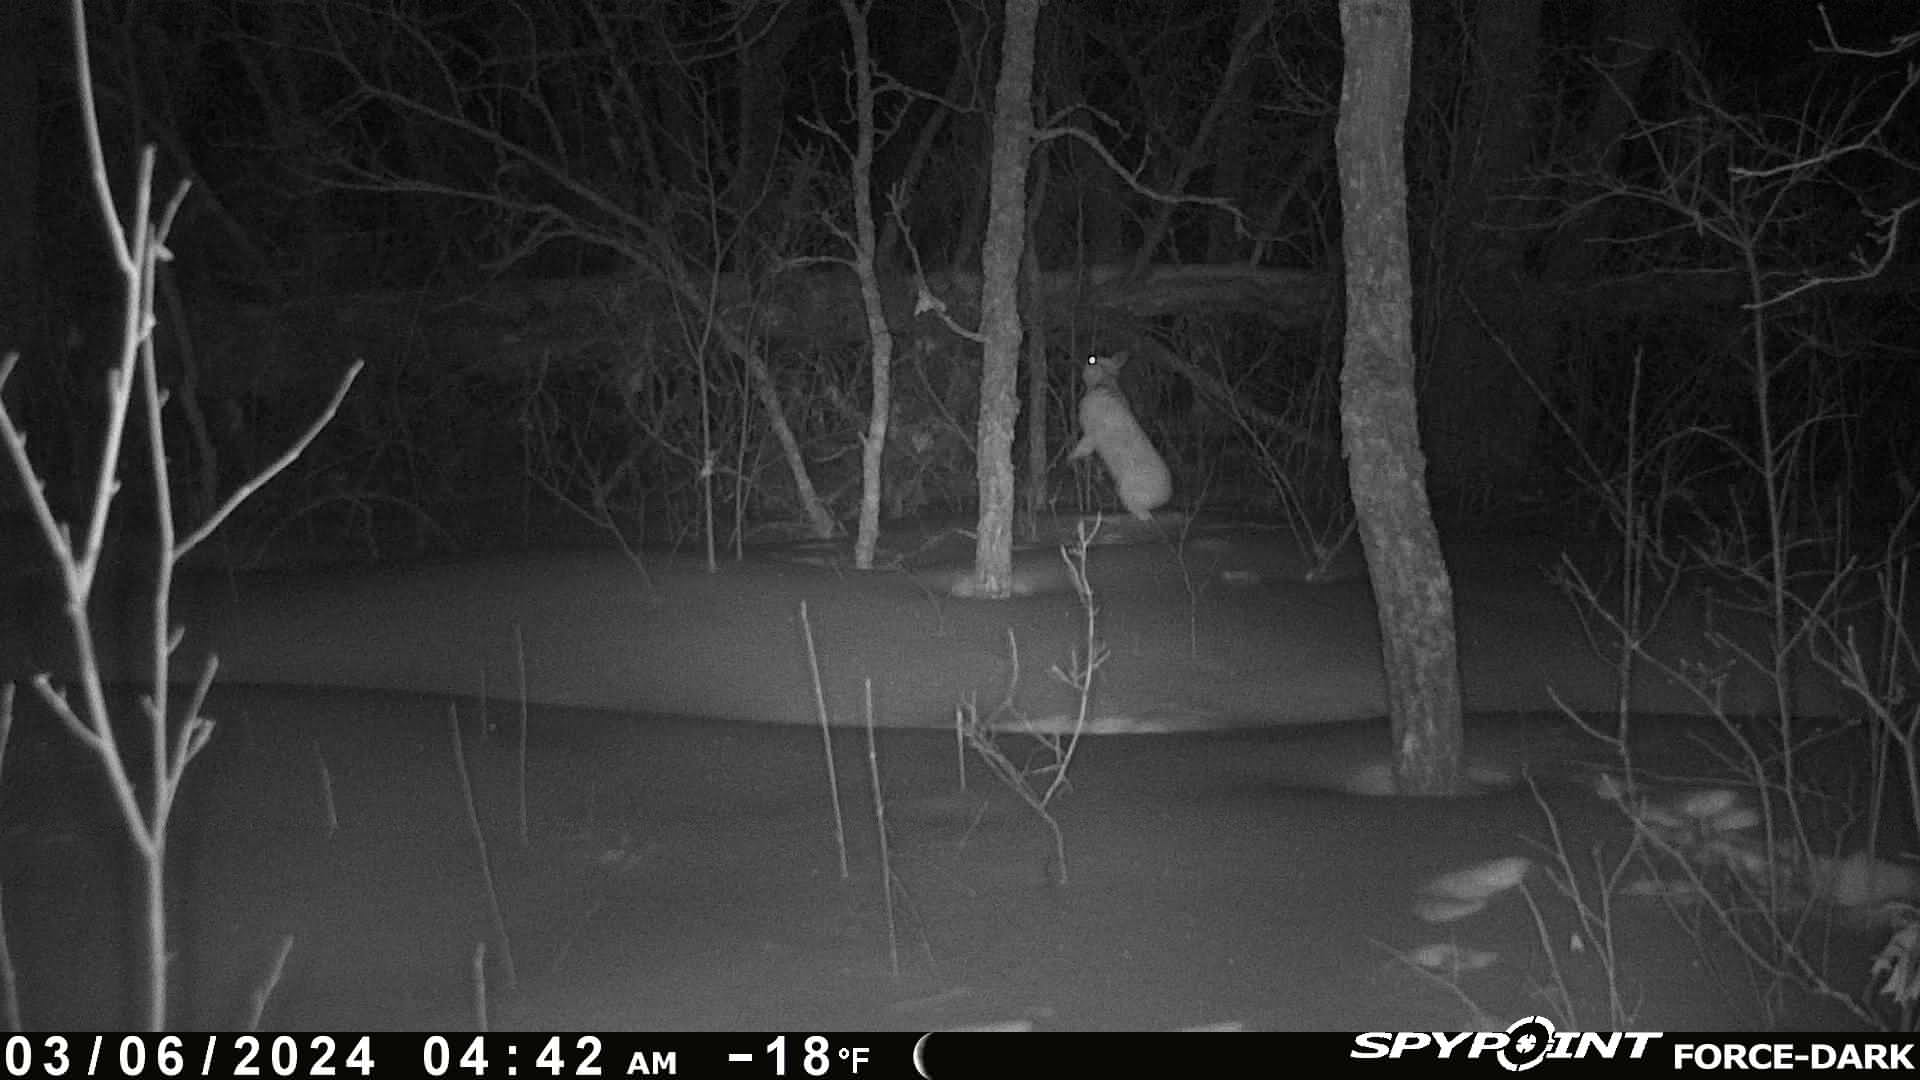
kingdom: Animalia
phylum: Chordata
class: Mammalia
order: Lagomorpha
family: Leporidae
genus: Lepus
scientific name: Lepus americanus
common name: Snowshoe hare
